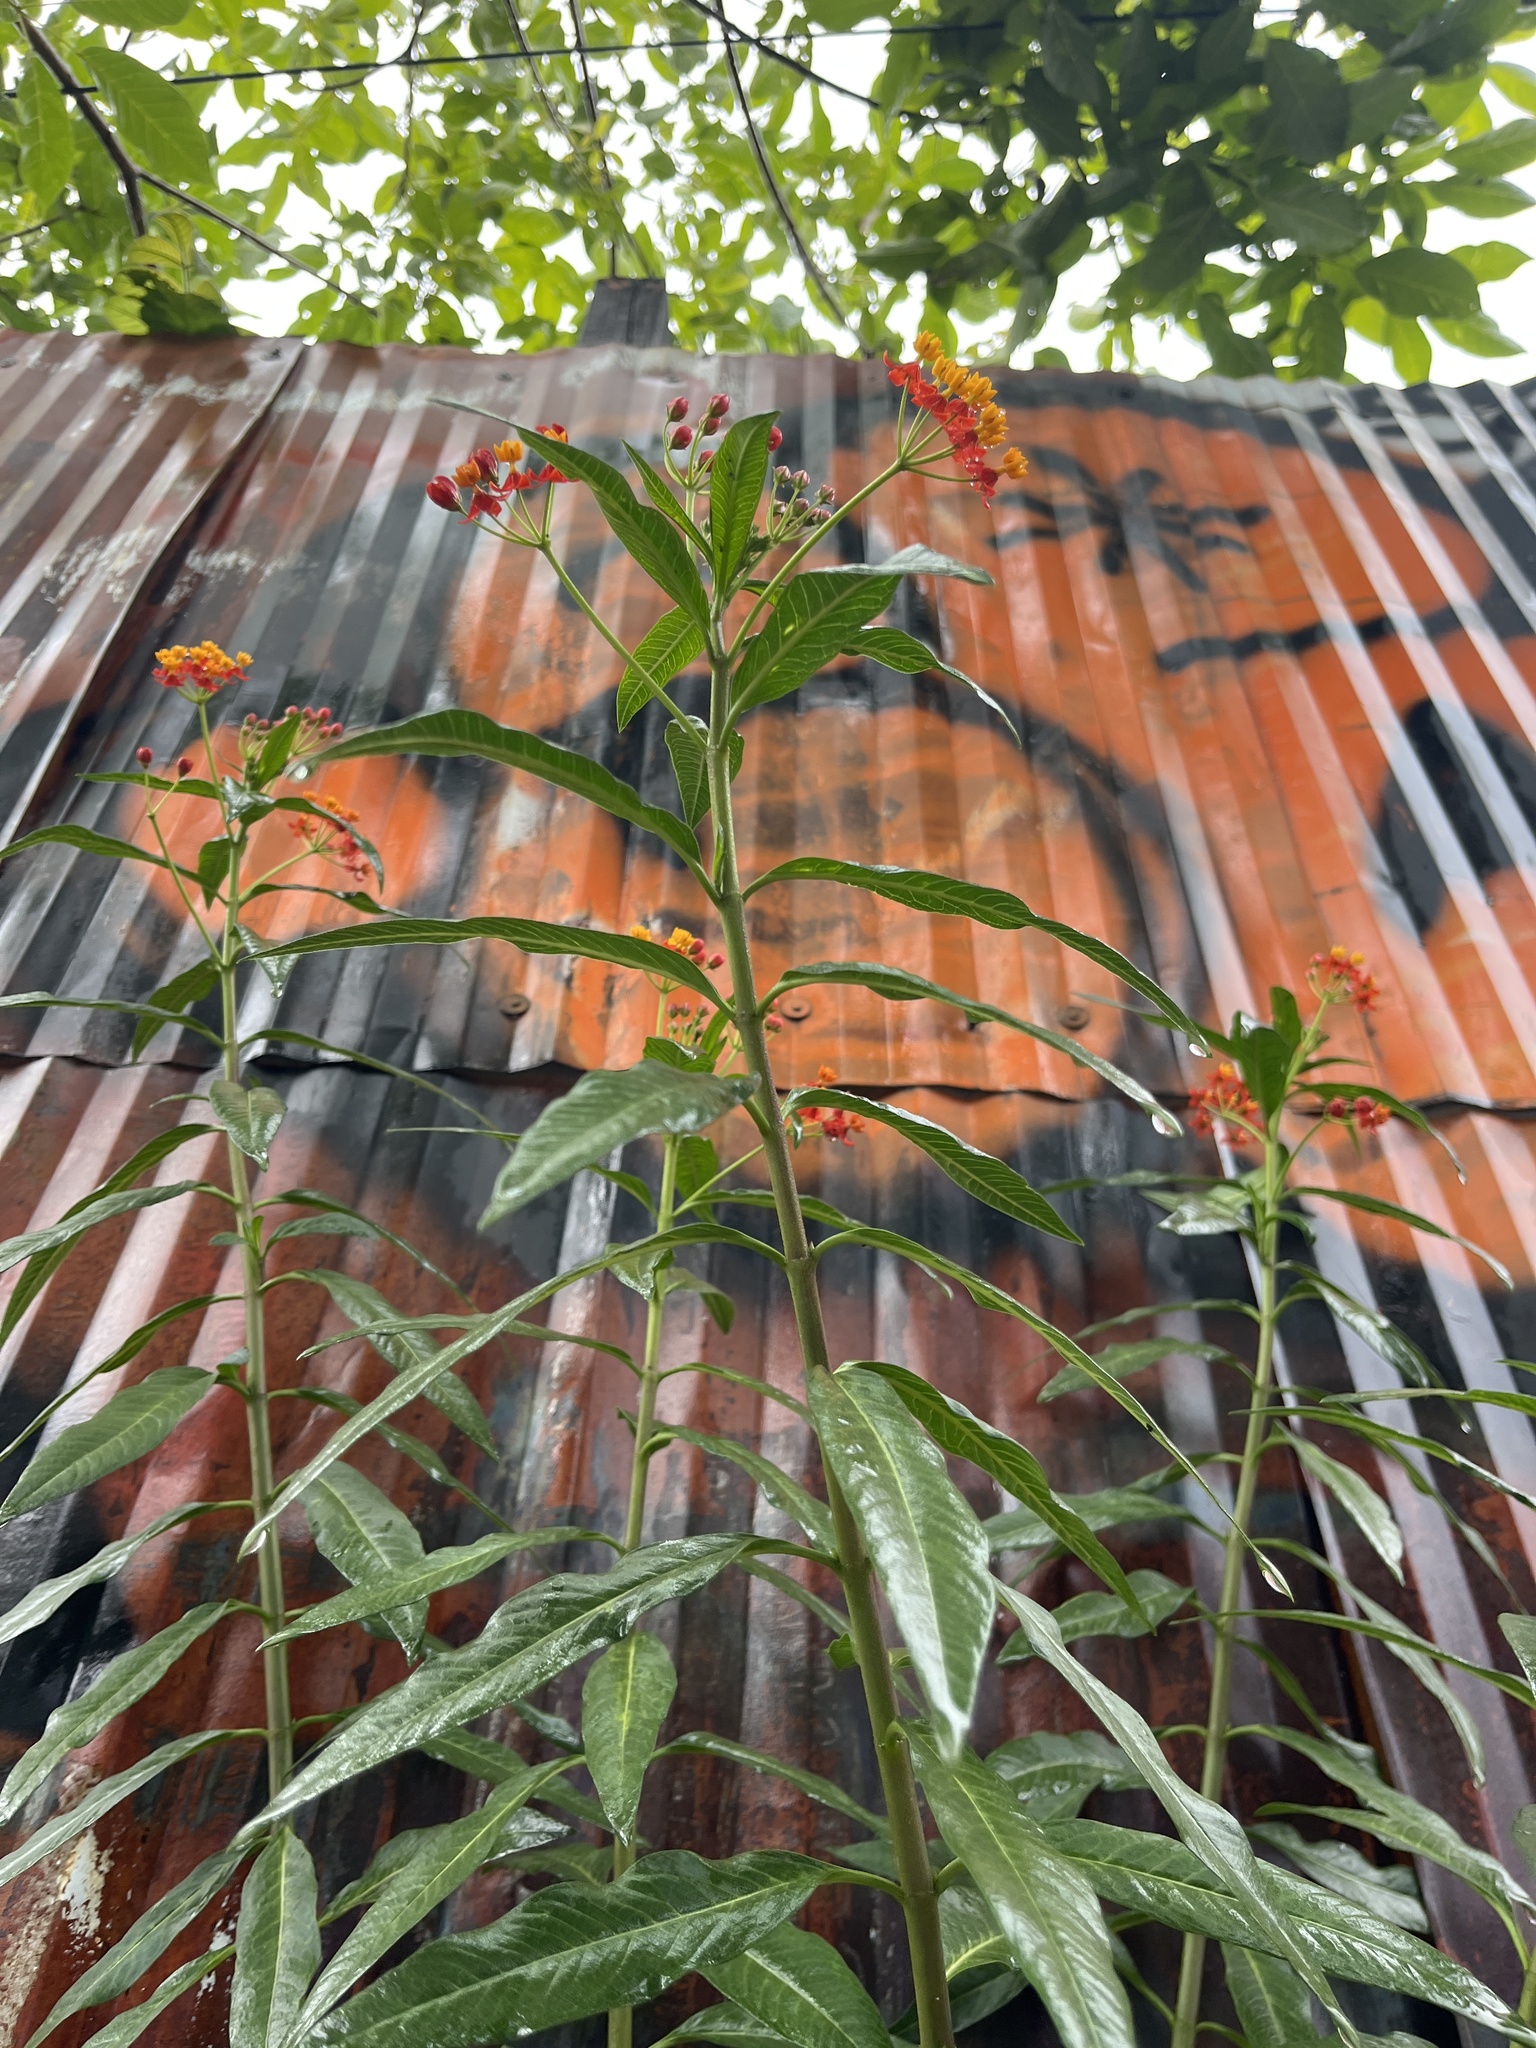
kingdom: Plantae
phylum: Tracheophyta
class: Magnoliopsida
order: Gentianales
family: Apocynaceae
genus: Asclepias
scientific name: Asclepias curassavica
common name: Bloodflower
